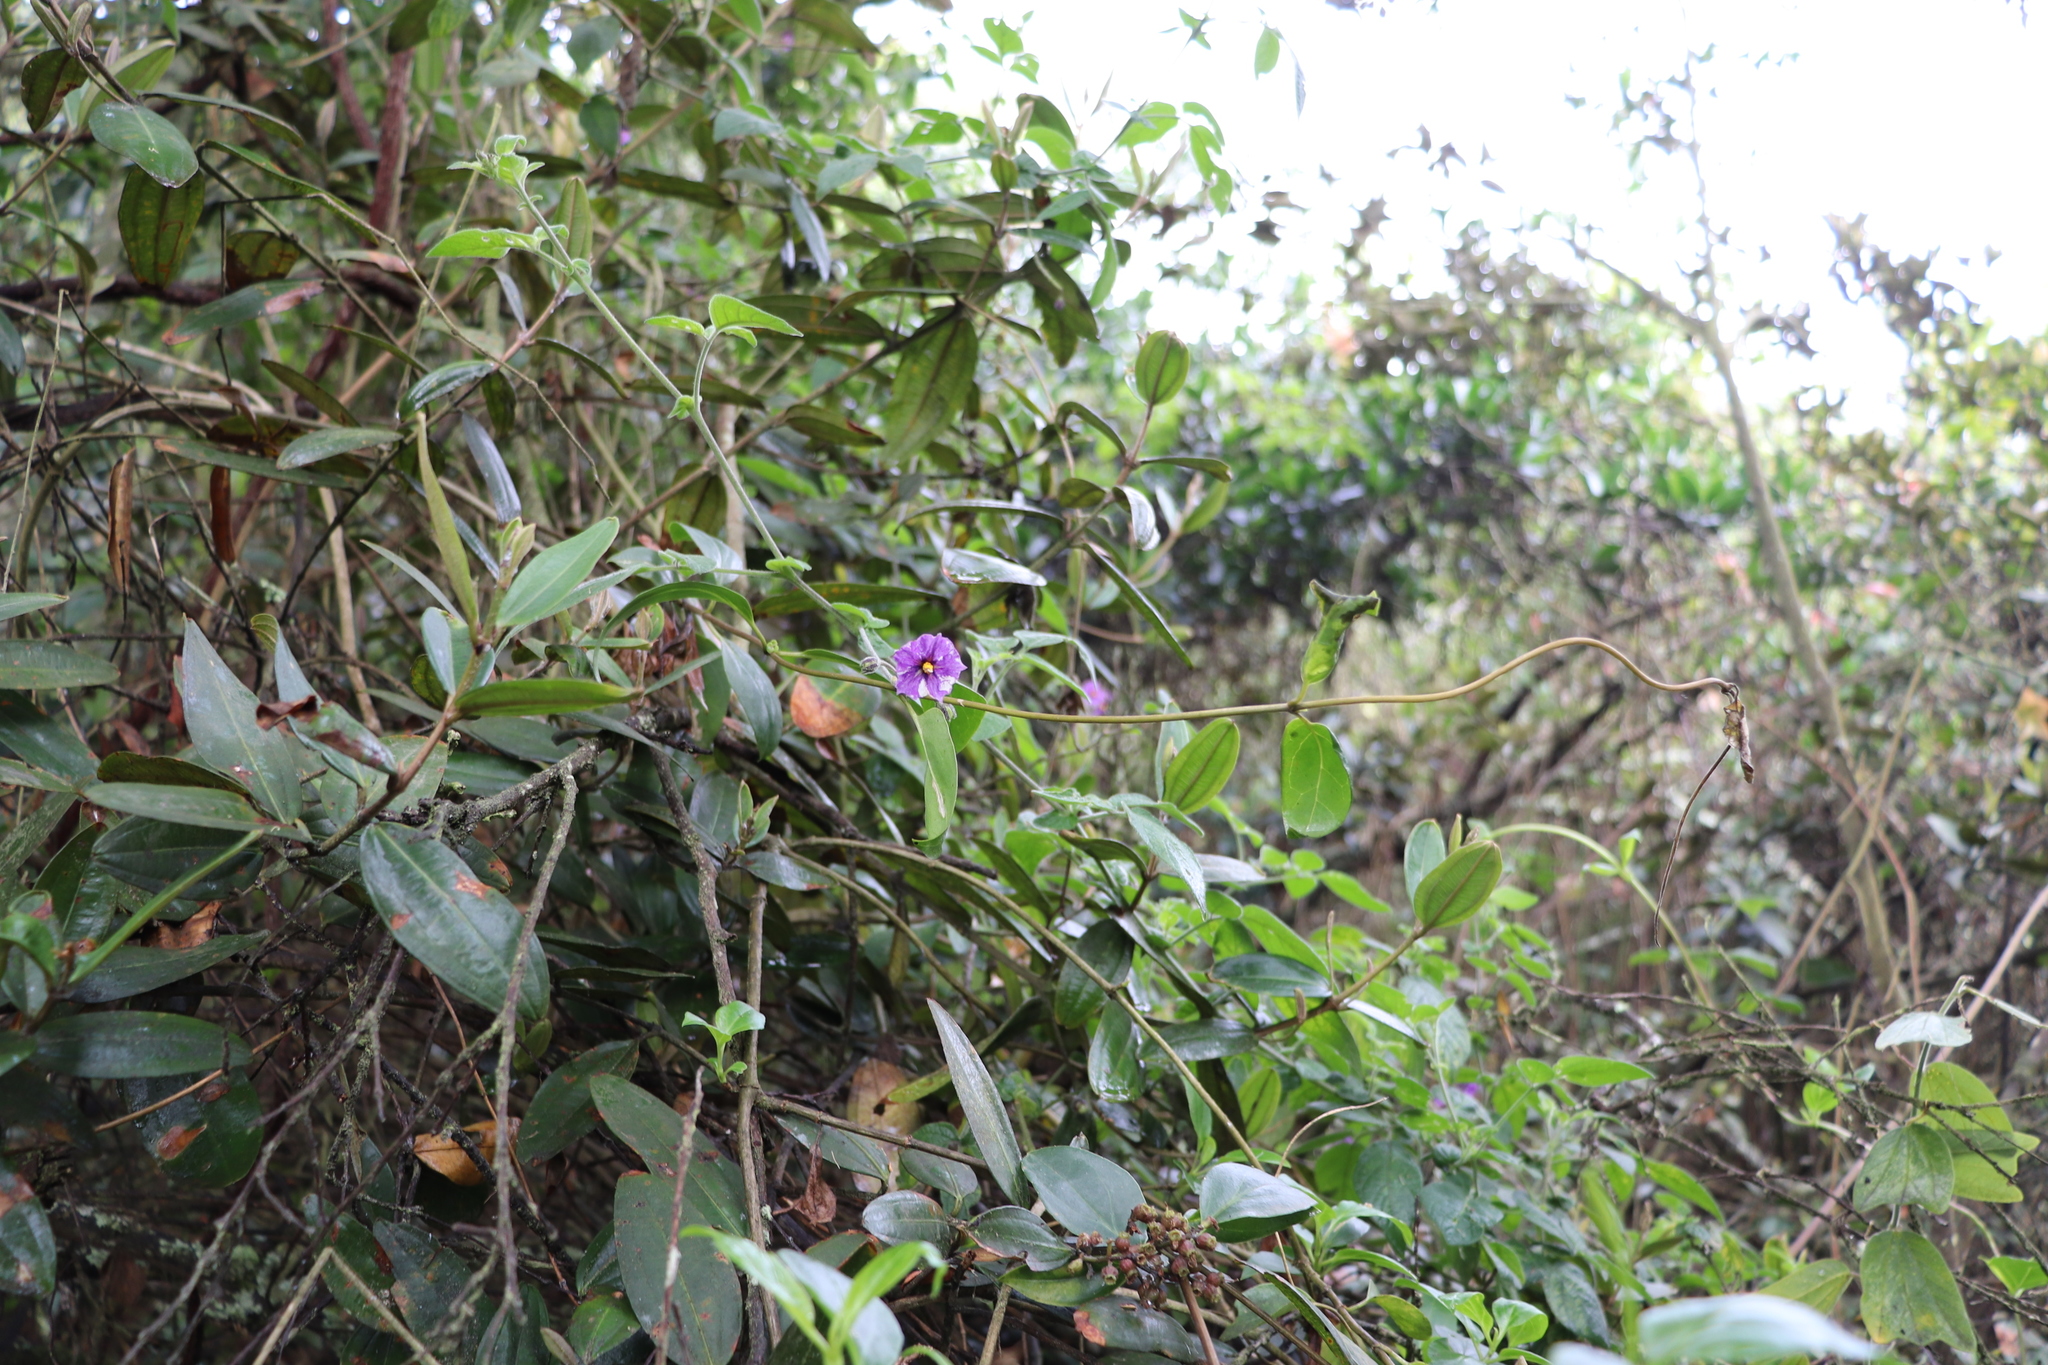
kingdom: Plantae
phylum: Tracheophyta
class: Magnoliopsida
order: Solanales
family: Solanaceae
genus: Lycianthes
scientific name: Lycianthes lycioides
